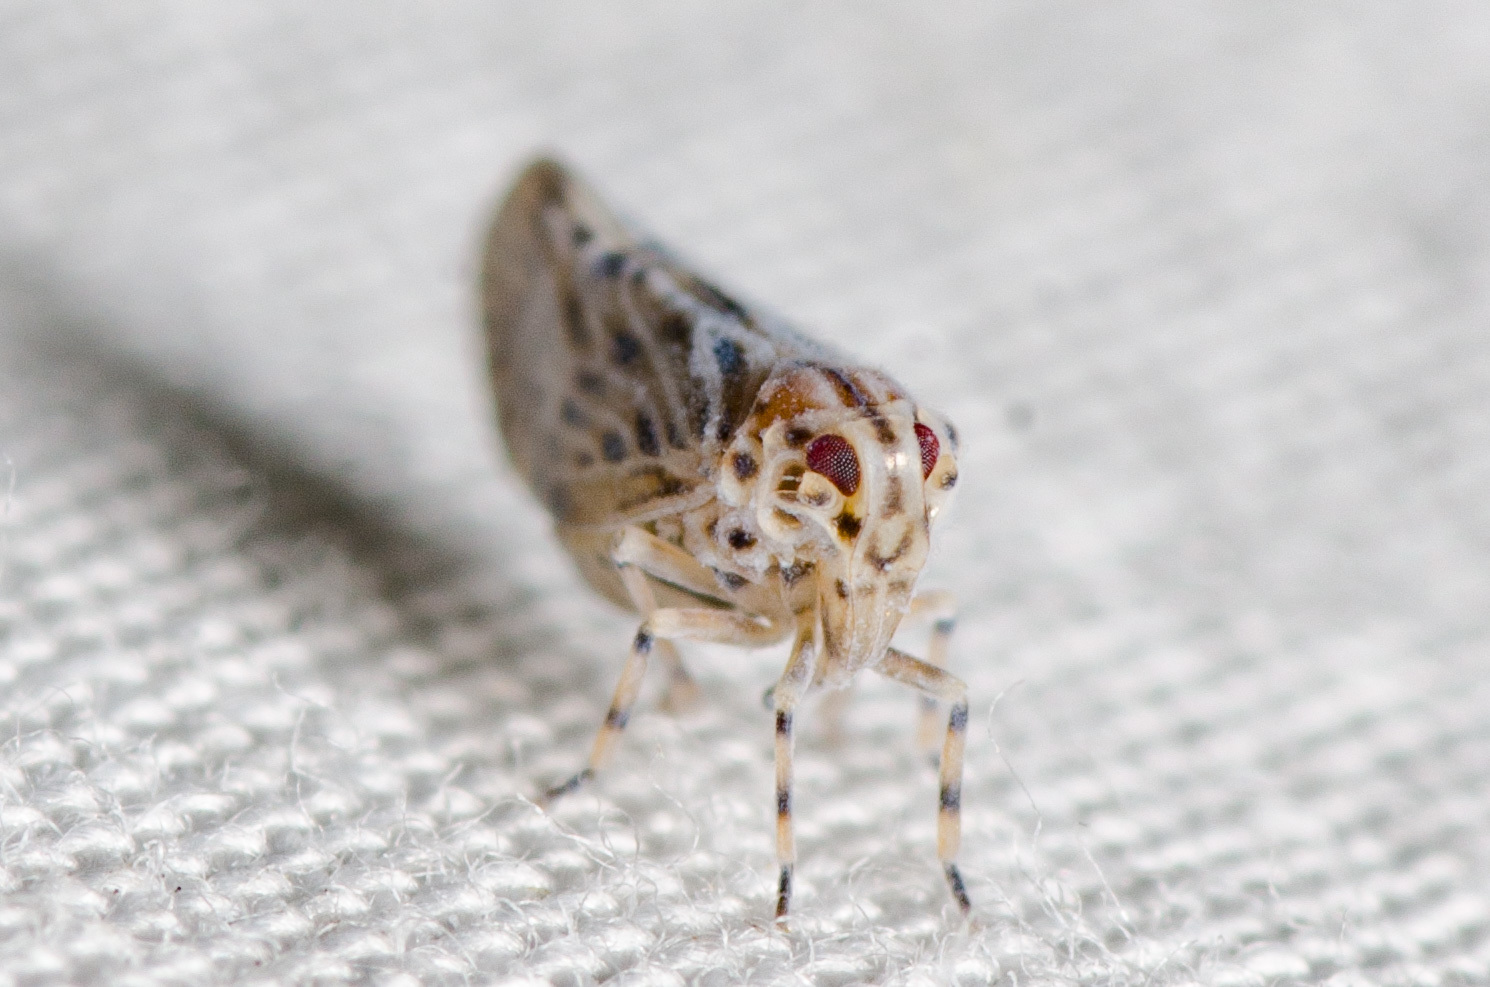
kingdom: Animalia
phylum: Arthropoda
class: Insecta
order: Hemiptera
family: Derbidae
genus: Cedusa
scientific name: Cedusa maculata
